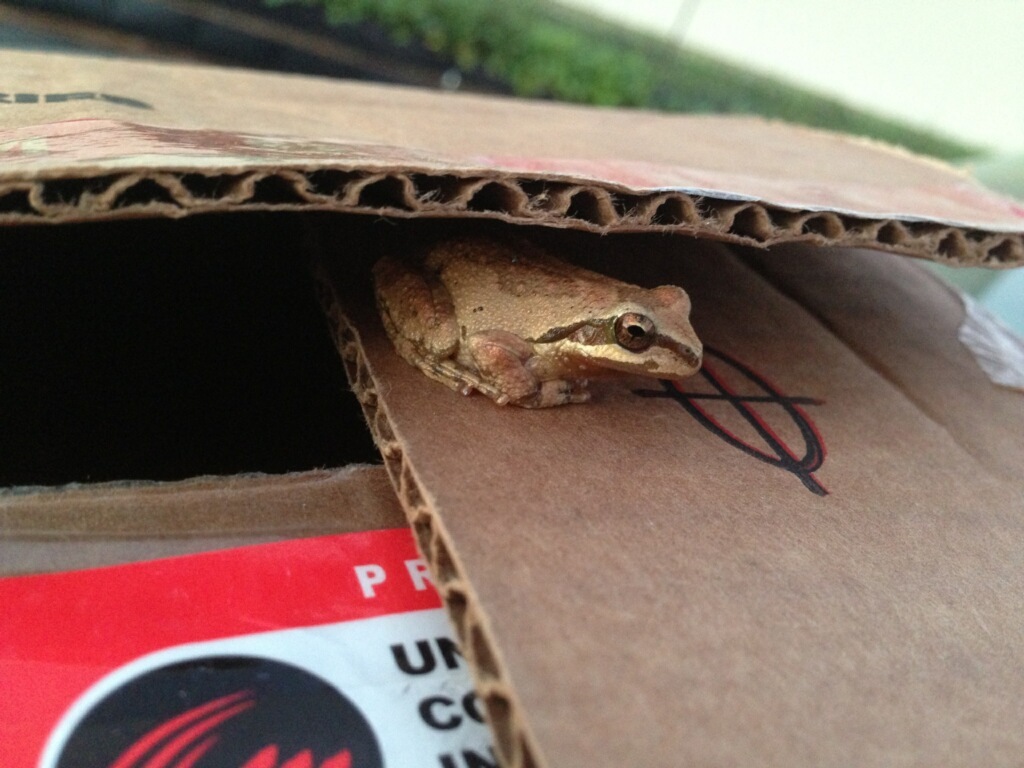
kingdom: Animalia
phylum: Chordata
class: Amphibia
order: Anura
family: Hylidae
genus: Pseudacris
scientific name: Pseudacris regilla
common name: Pacific chorus frog
